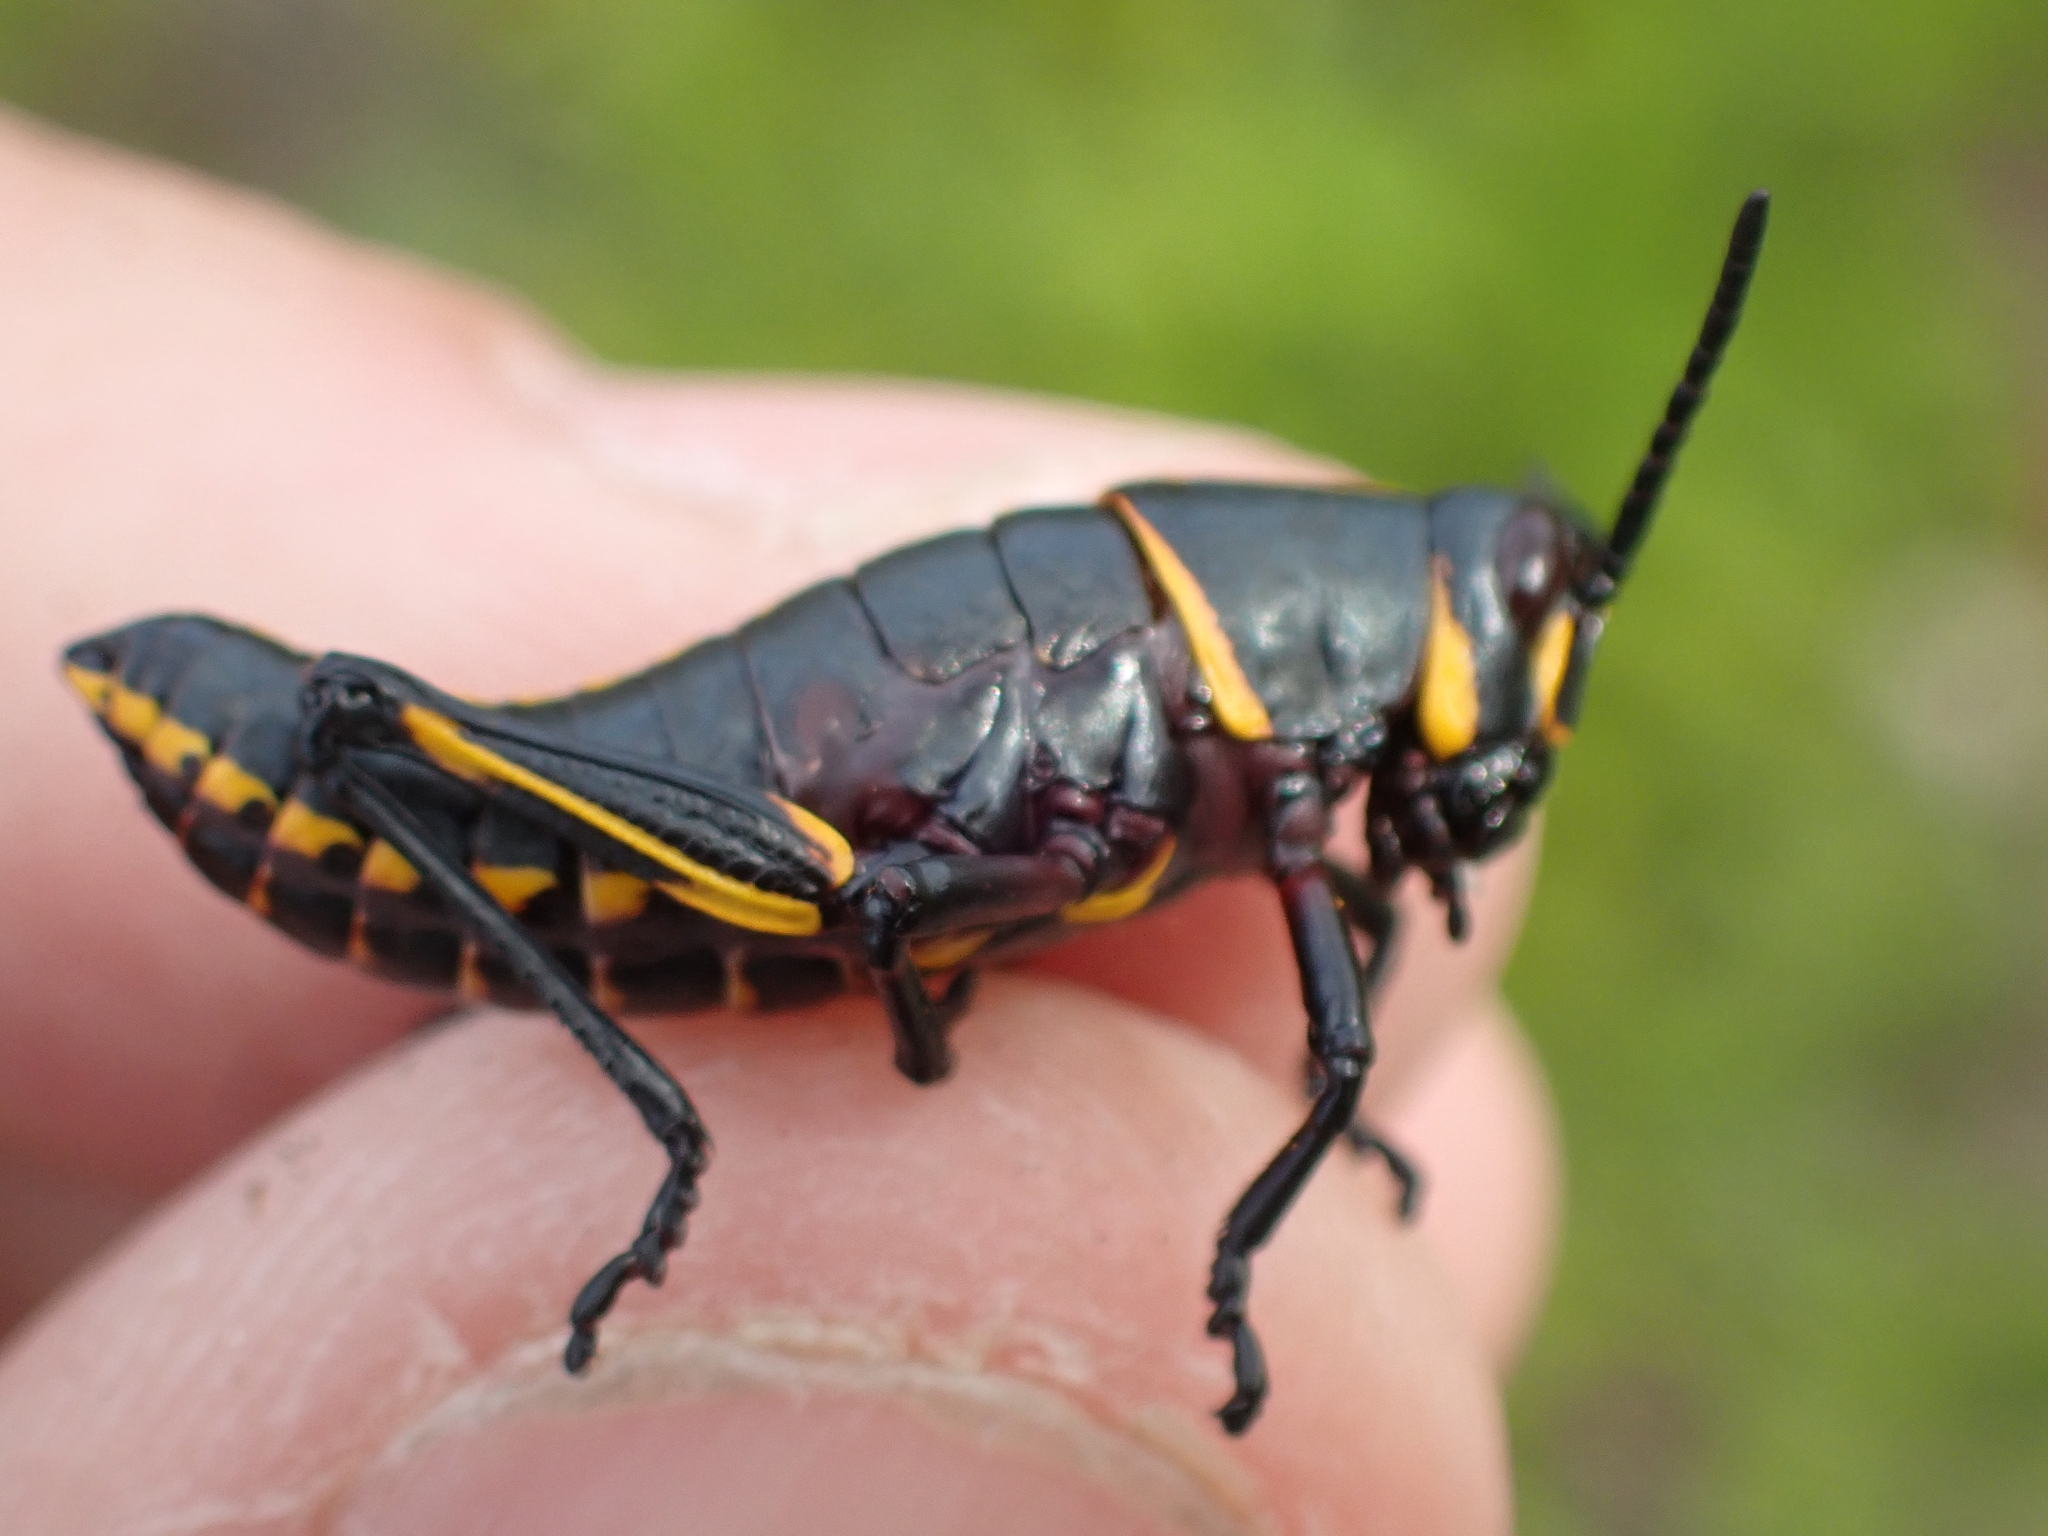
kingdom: Animalia
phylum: Arthropoda
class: Insecta
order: Orthoptera
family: Romaleidae
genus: Romalea
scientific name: Romalea microptera
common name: Eastern lubber grasshopper
